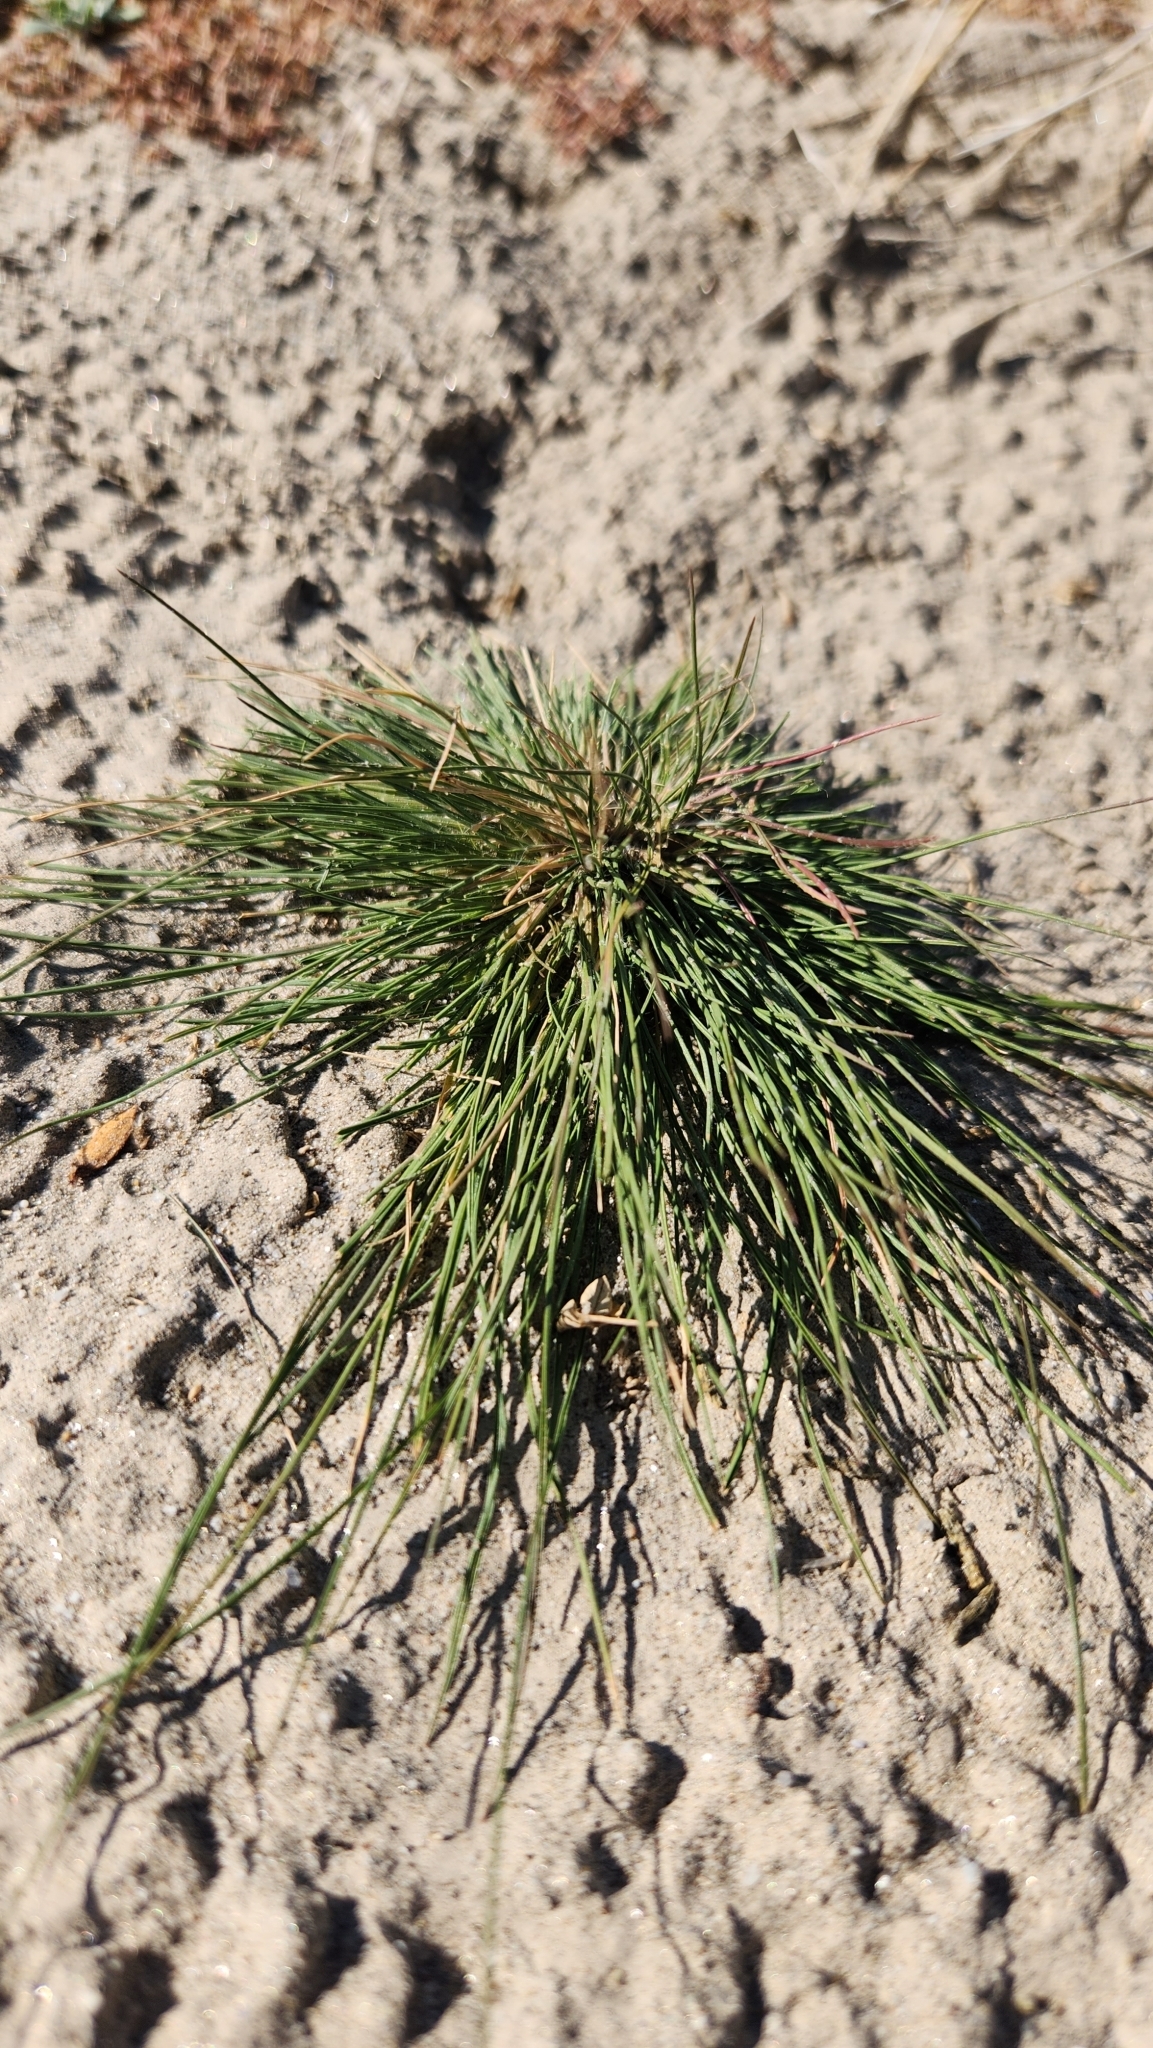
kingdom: Plantae
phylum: Tracheophyta
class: Liliopsida
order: Poales
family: Poaceae
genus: Schismus
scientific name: Schismus barbatus
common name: Kelch-grass
